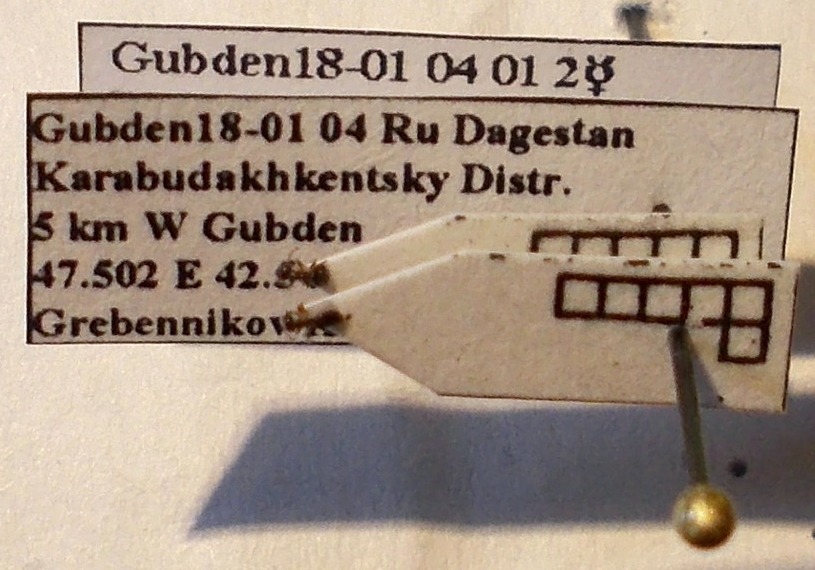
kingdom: Animalia
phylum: Arthropoda
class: Insecta
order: Hymenoptera
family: Formicidae
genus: Plagiolepis
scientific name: Plagiolepis pallescens
